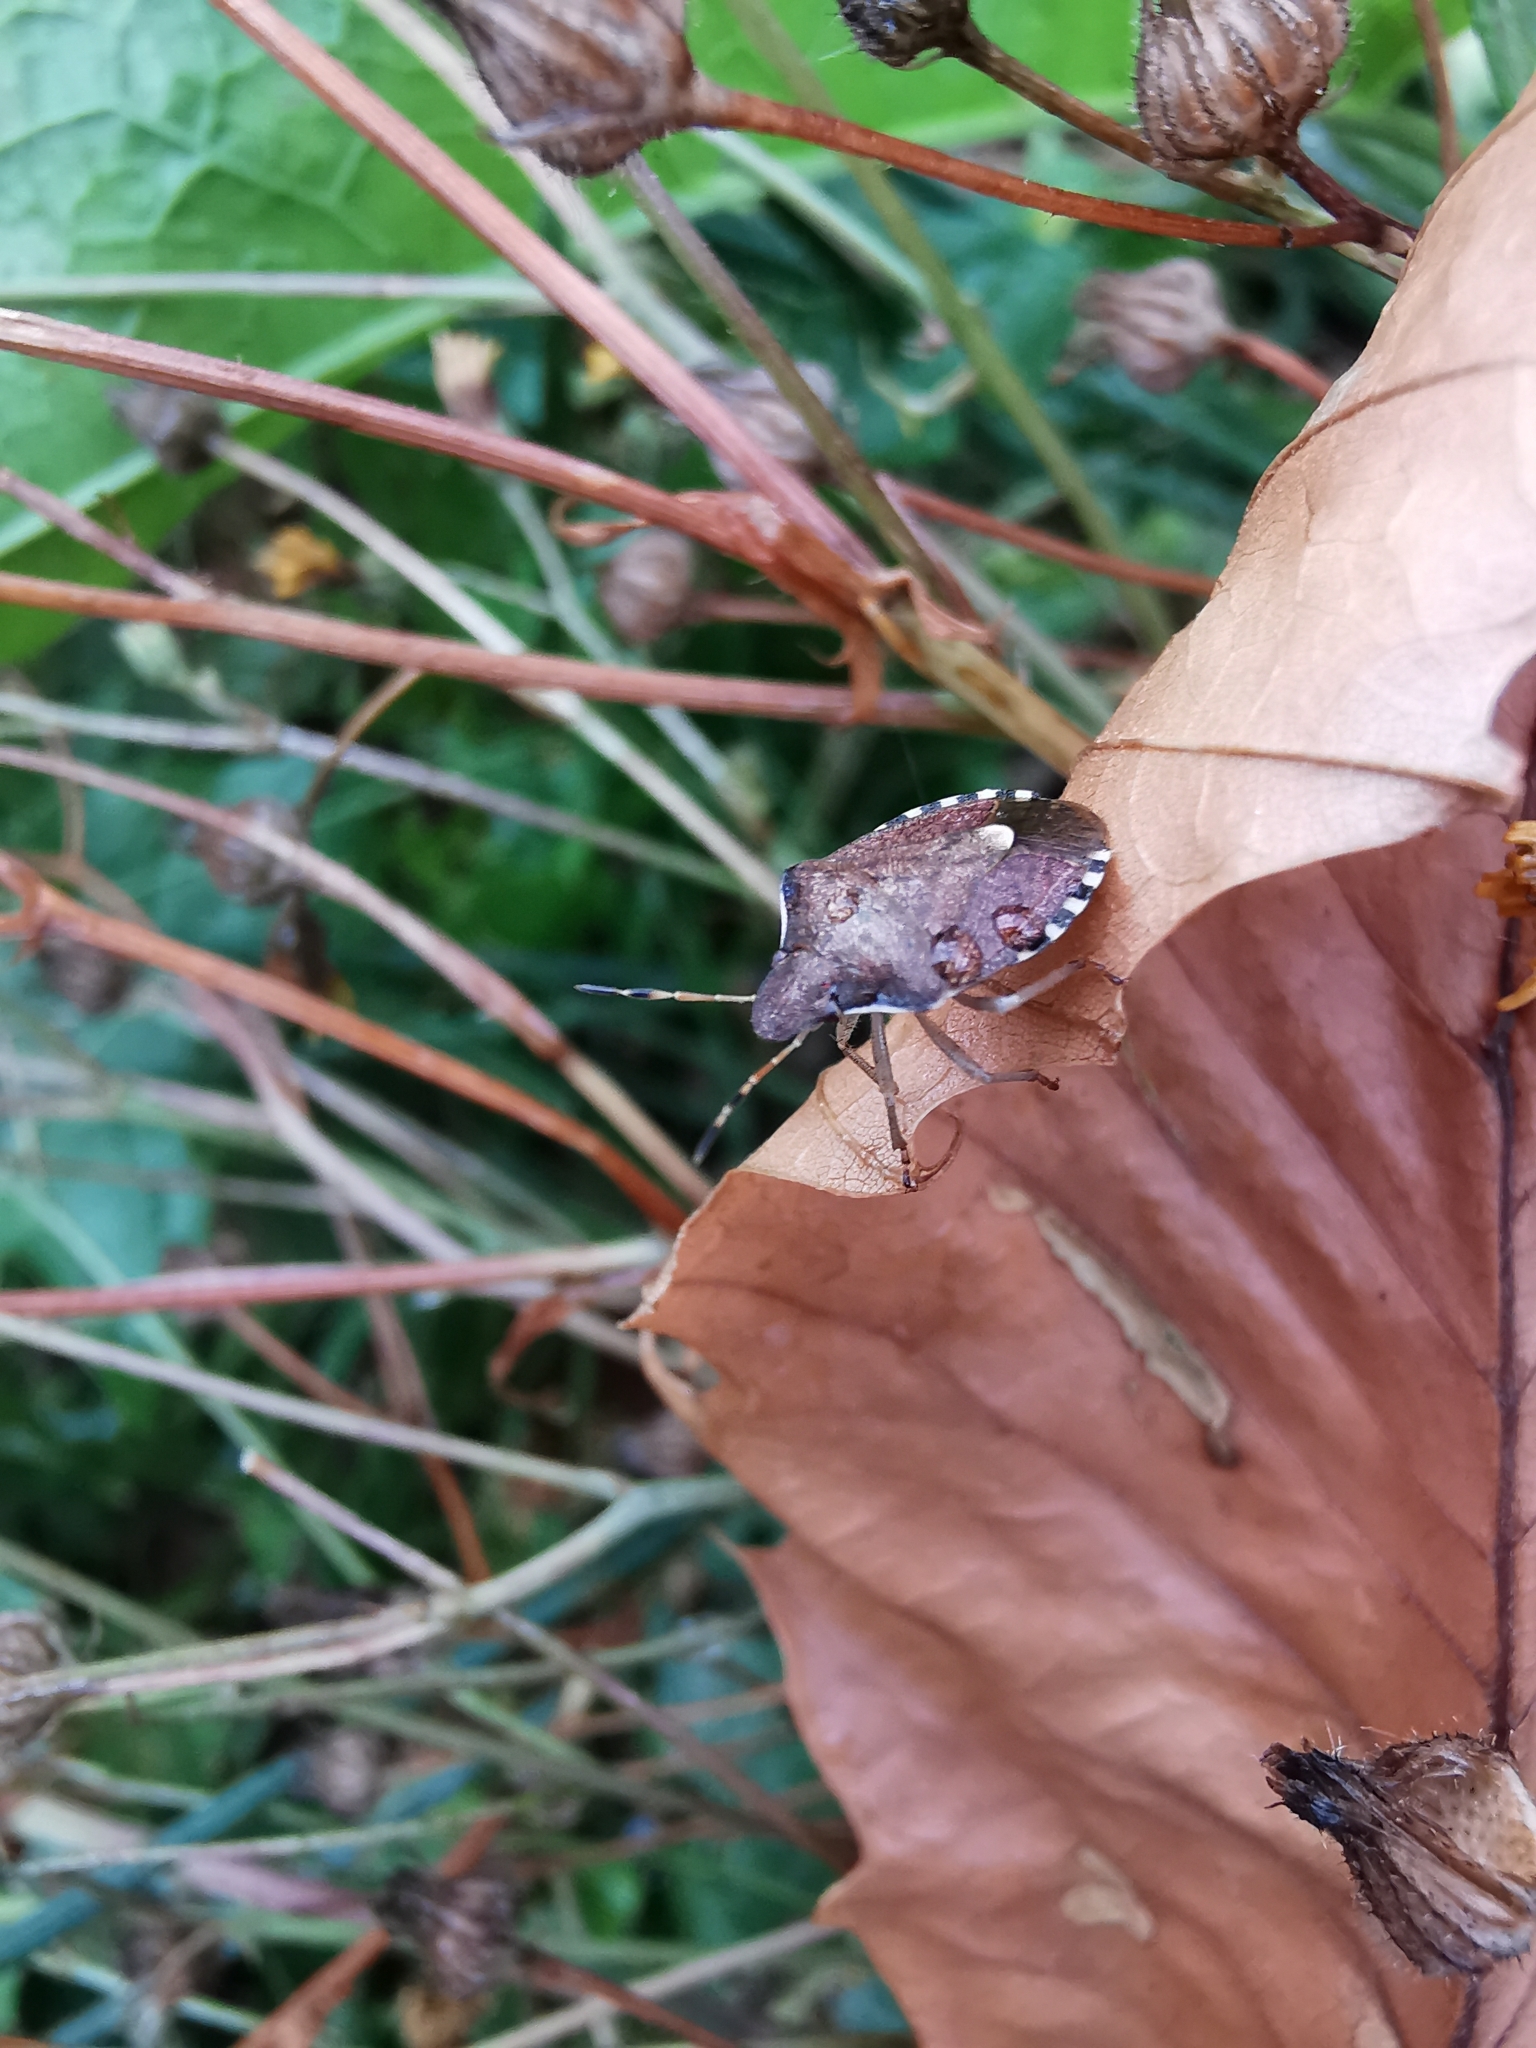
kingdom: Animalia
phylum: Arthropoda
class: Insecta
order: Hemiptera
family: Pentatomidae
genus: Holcostethus
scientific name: Holcostethus strictus
